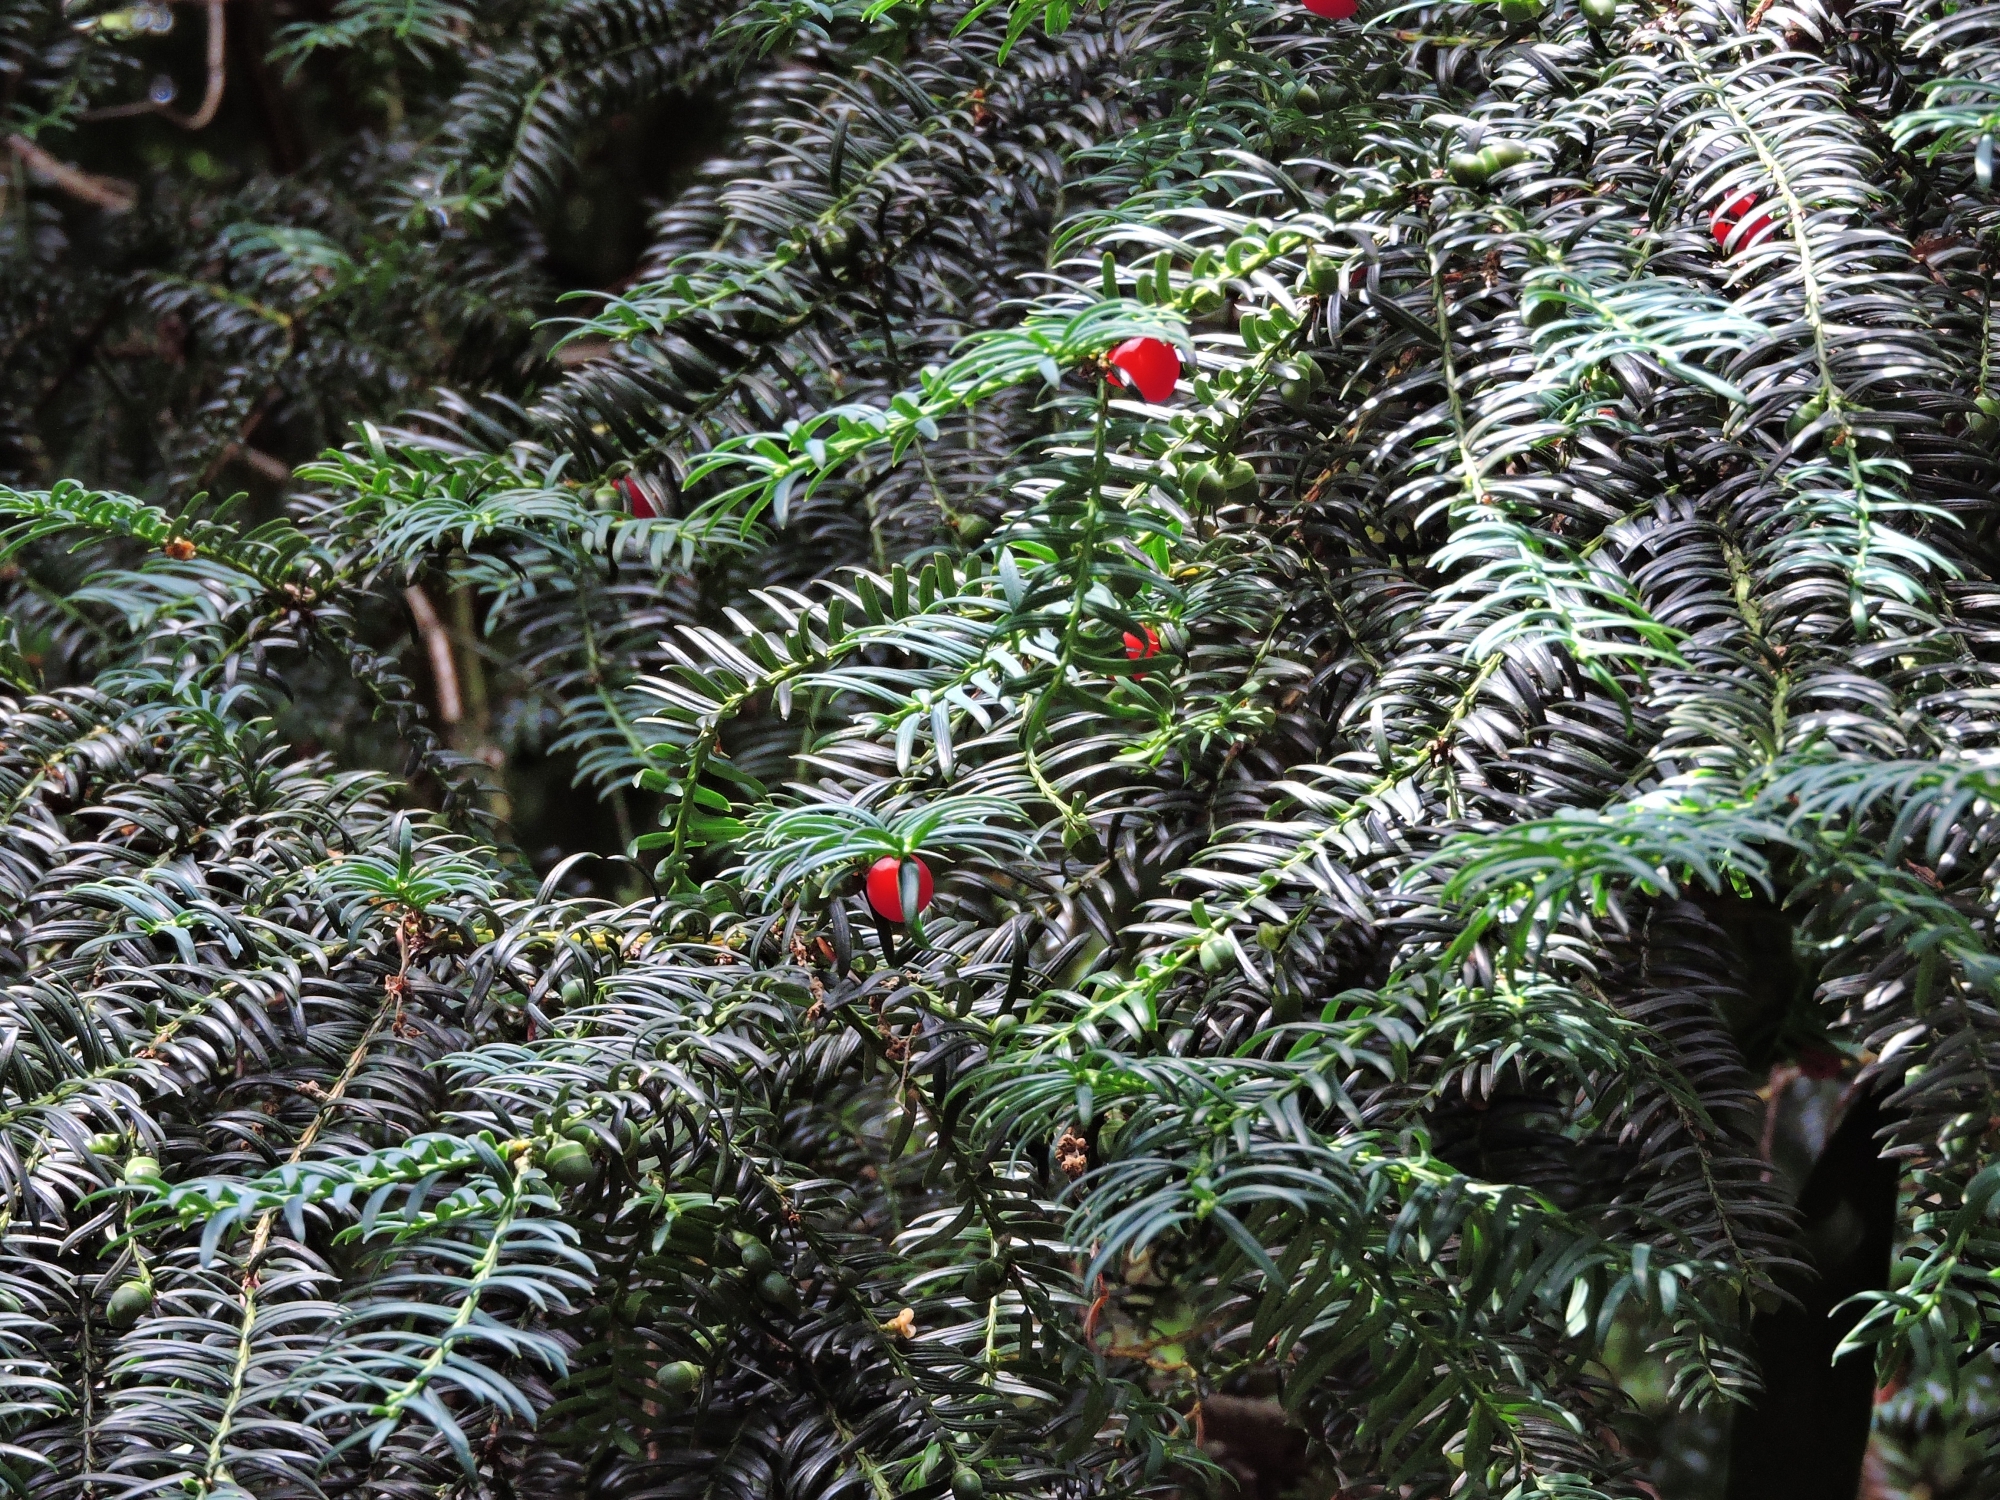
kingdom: Plantae
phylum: Tracheophyta
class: Pinopsida
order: Pinales
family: Taxaceae
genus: Taxus
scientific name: Taxus baccata
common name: Yew
